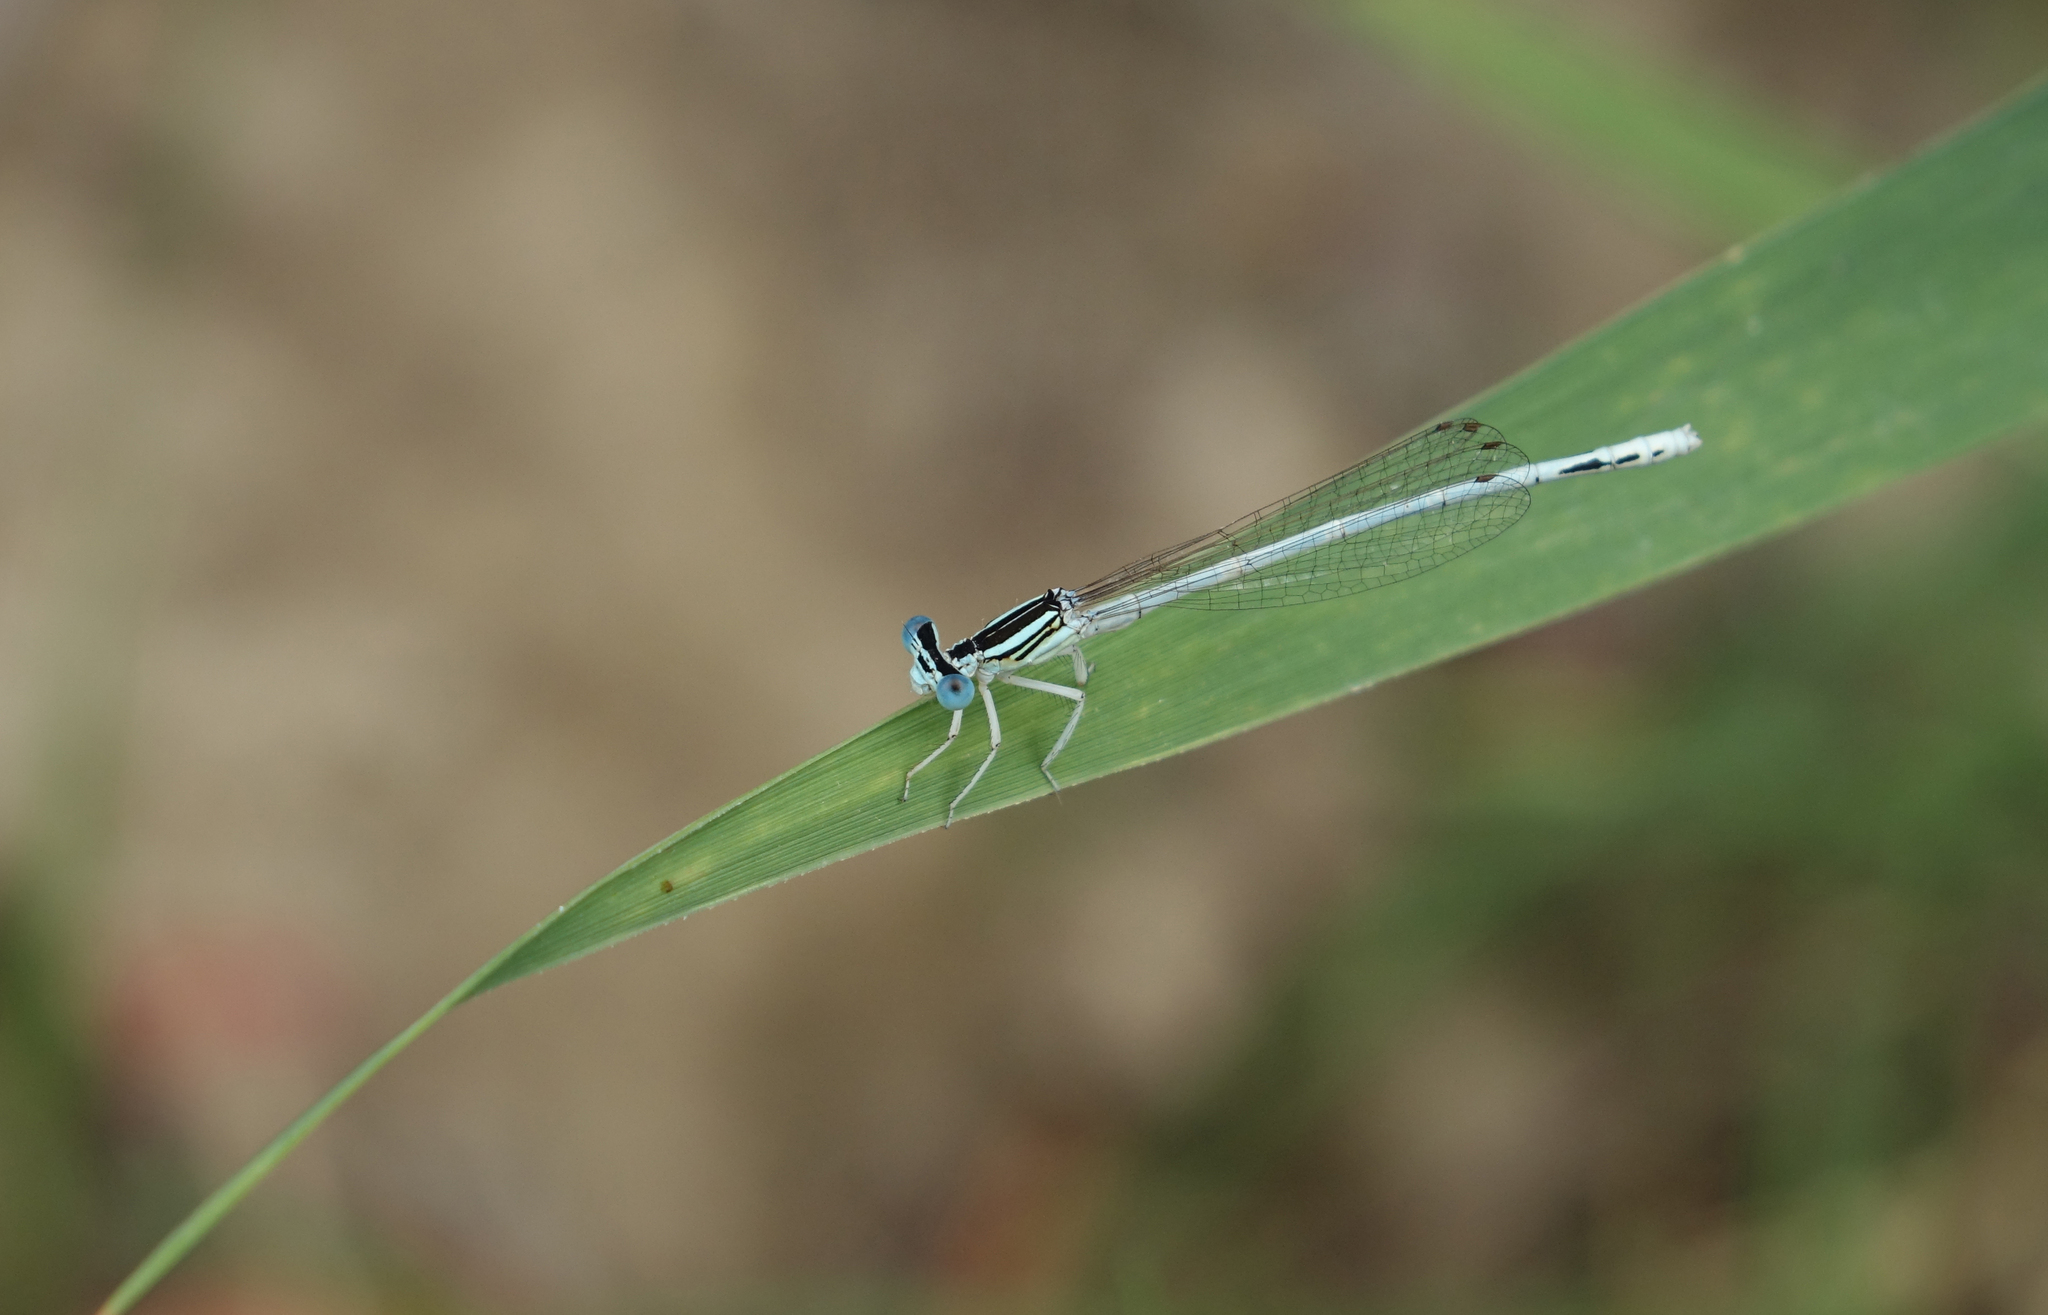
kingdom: Animalia
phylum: Arthropoda
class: Insecta
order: Odonata
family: Platycnemididae
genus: Platycnemis
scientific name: Platycnemis dealbata
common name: Ivory featherleg
